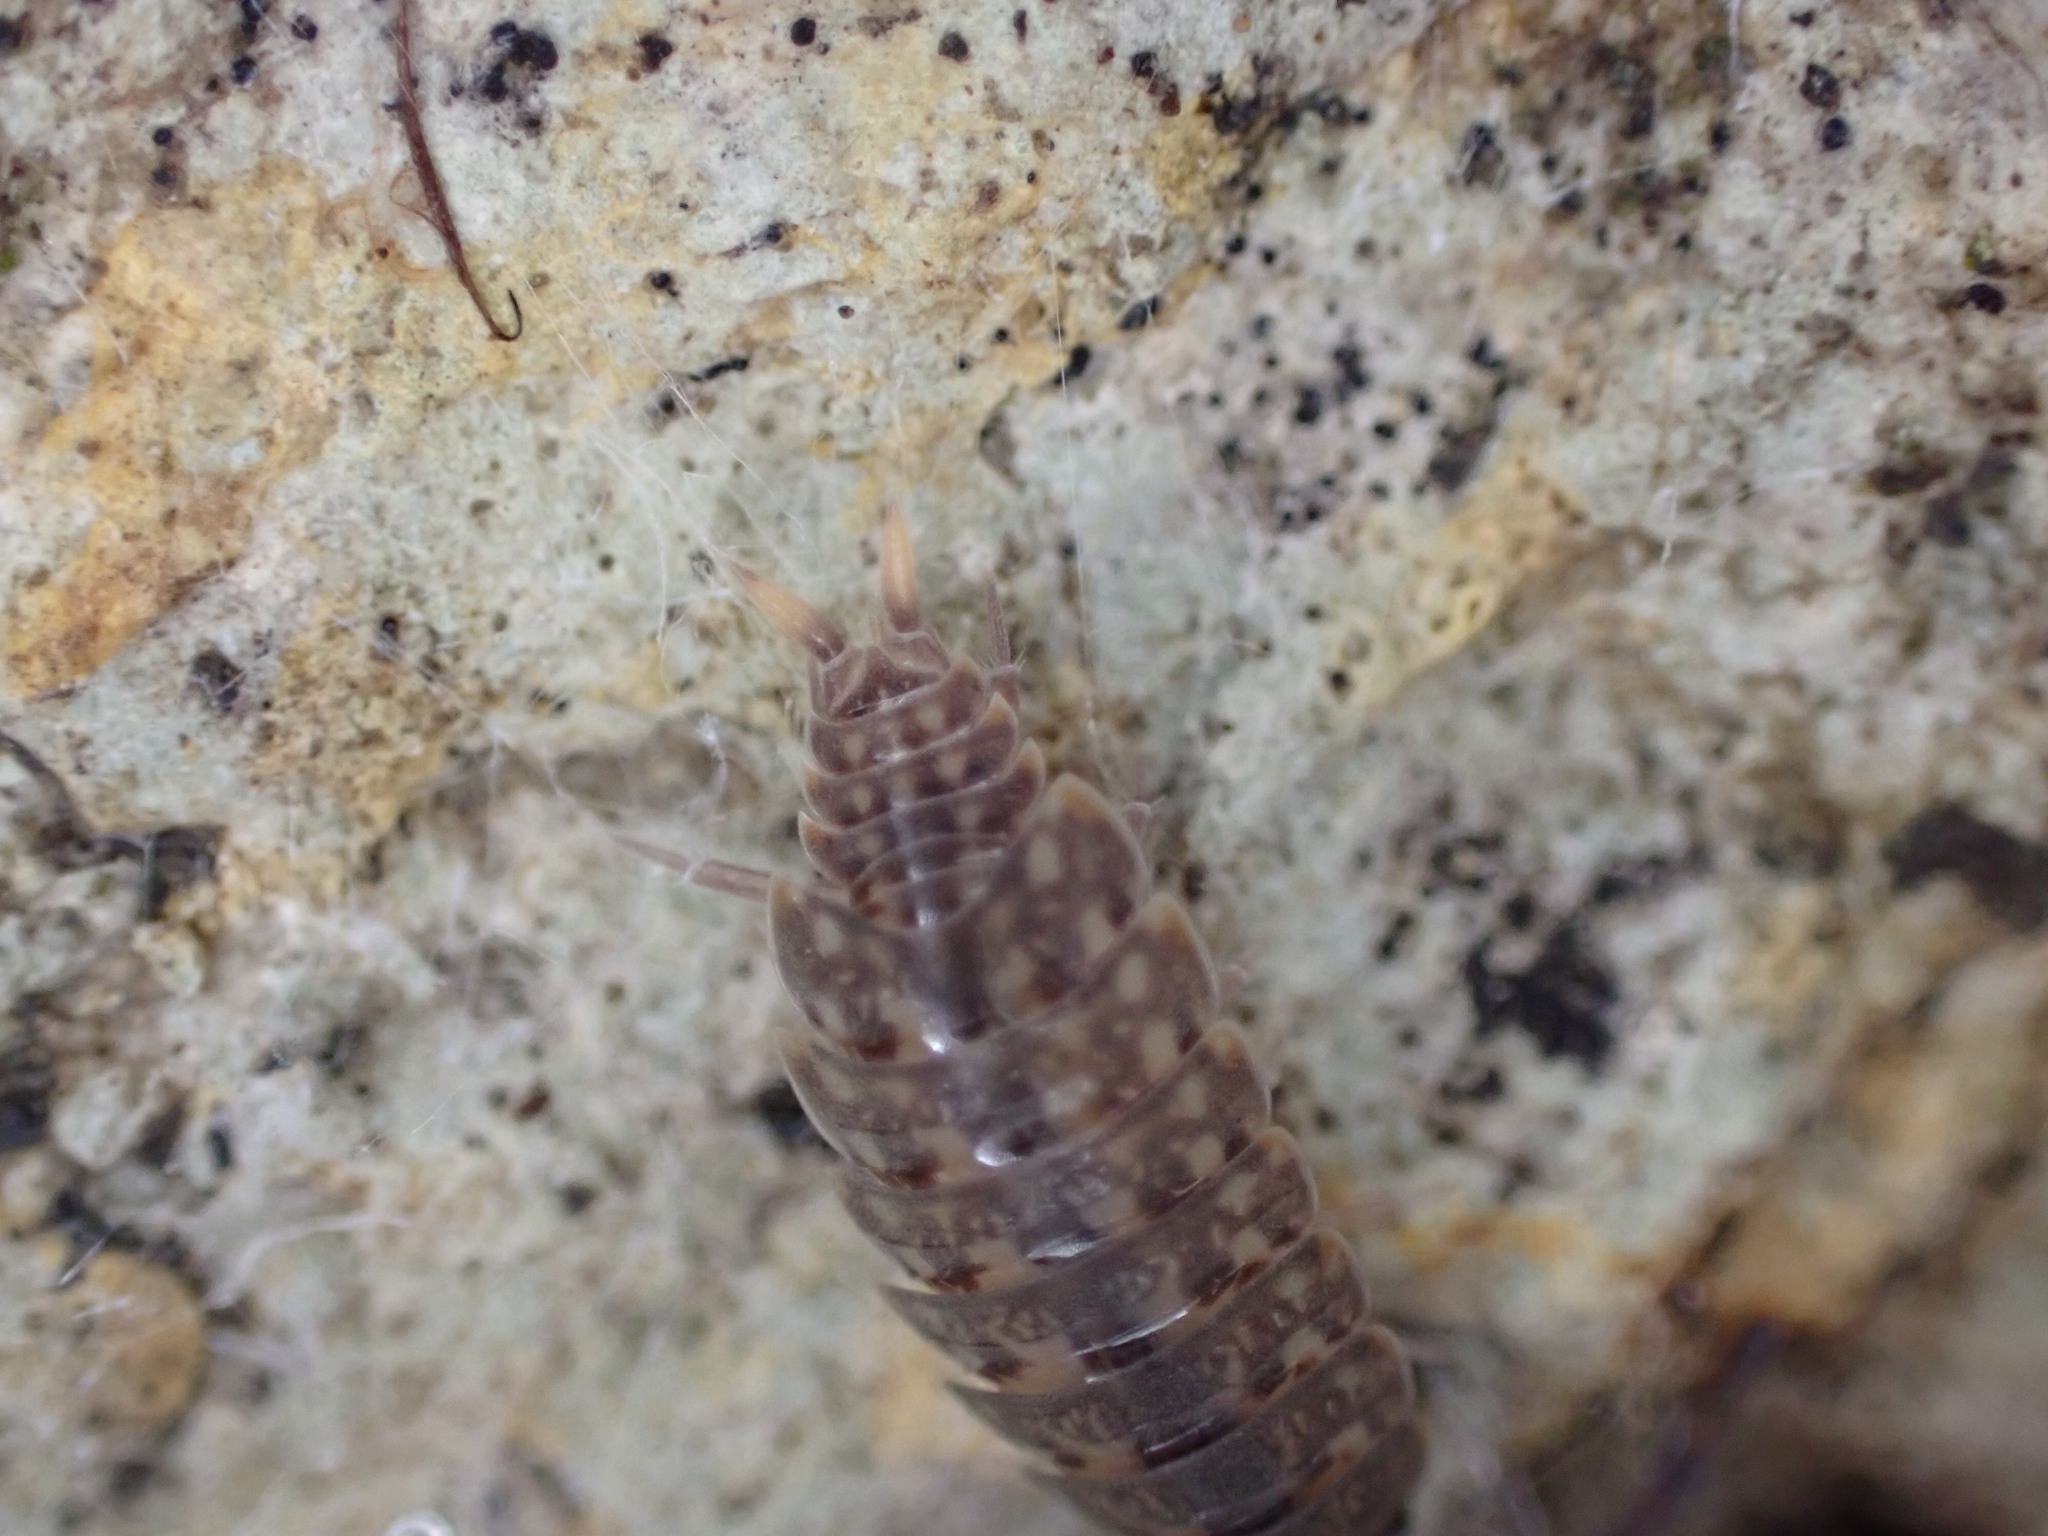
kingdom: Animalia
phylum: Arthropoda
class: Malacostraca
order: Isopoda
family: Agnaridae
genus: Orthometopon
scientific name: Orthometopon planum
